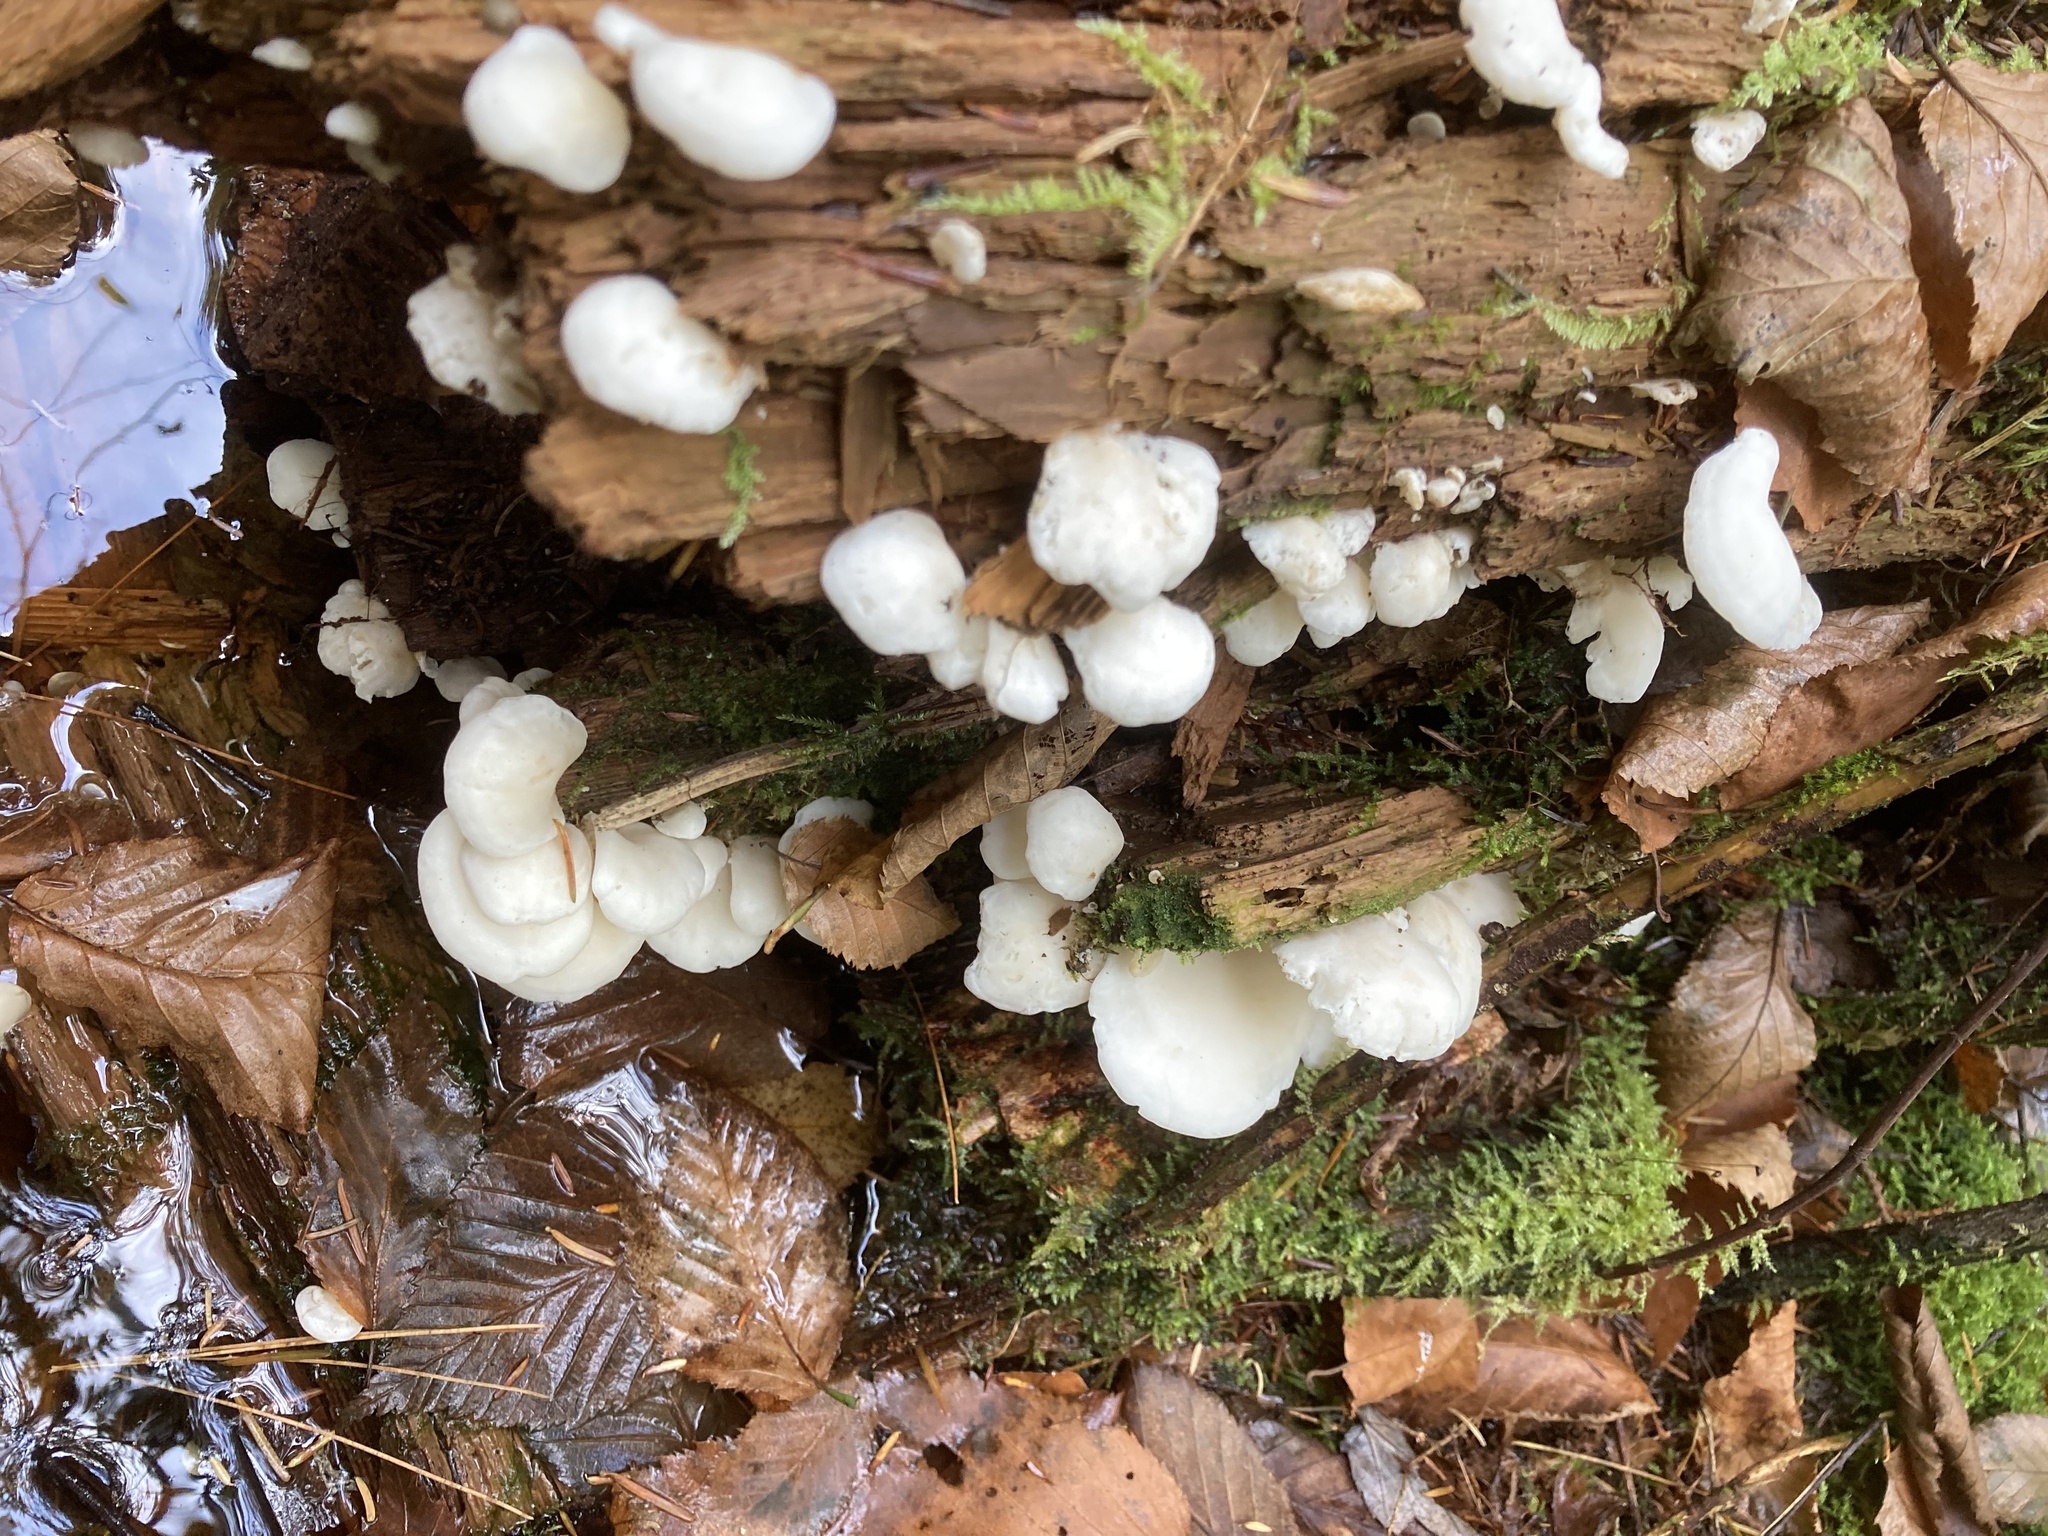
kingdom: Fungi
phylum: Basidiomycota
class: Agaricomycetes
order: Agaricales
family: Marasmiaceae
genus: Pleurocybella
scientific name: Pleurocybella porrigens
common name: Angel's wings
